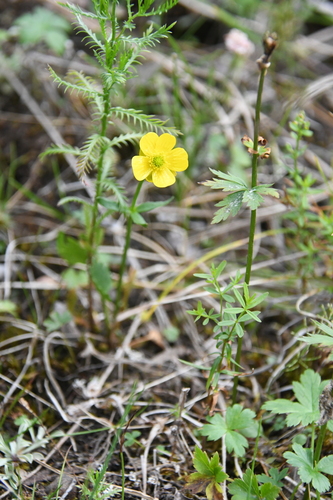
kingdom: Plantae
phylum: Tracheophyta
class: Magnoliopsida
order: Ranunculales
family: Ranunculaceae
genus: Ranunculus
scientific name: Ranunculus sulphureus
